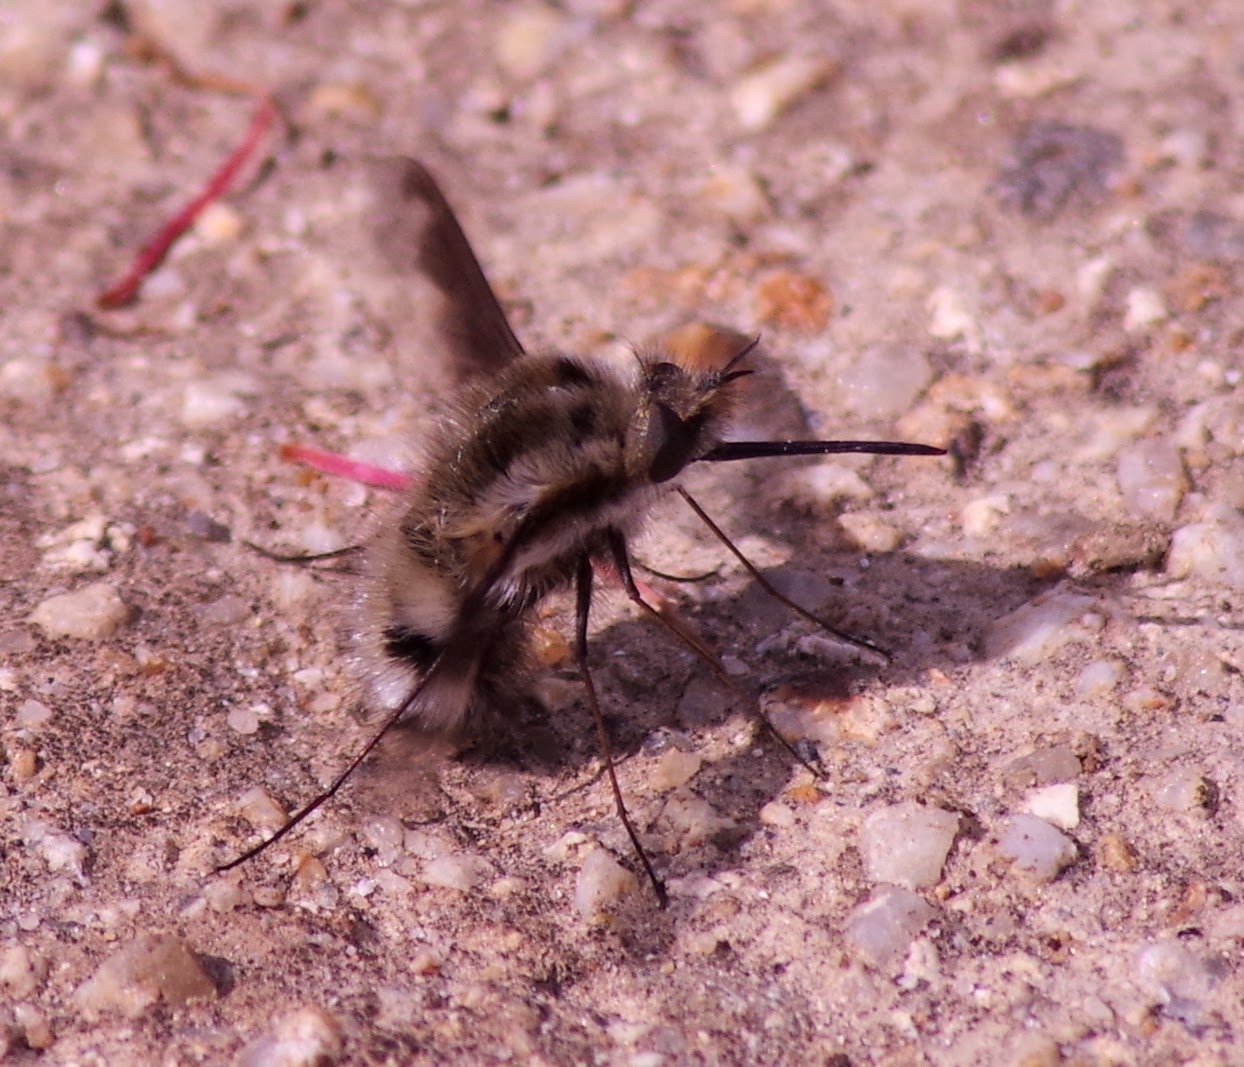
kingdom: Animalia
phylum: Arthropoda
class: Insecta
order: Diptera
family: Bombyliidae
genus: Bombylius
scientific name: Bombylius major
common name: Bee fly
